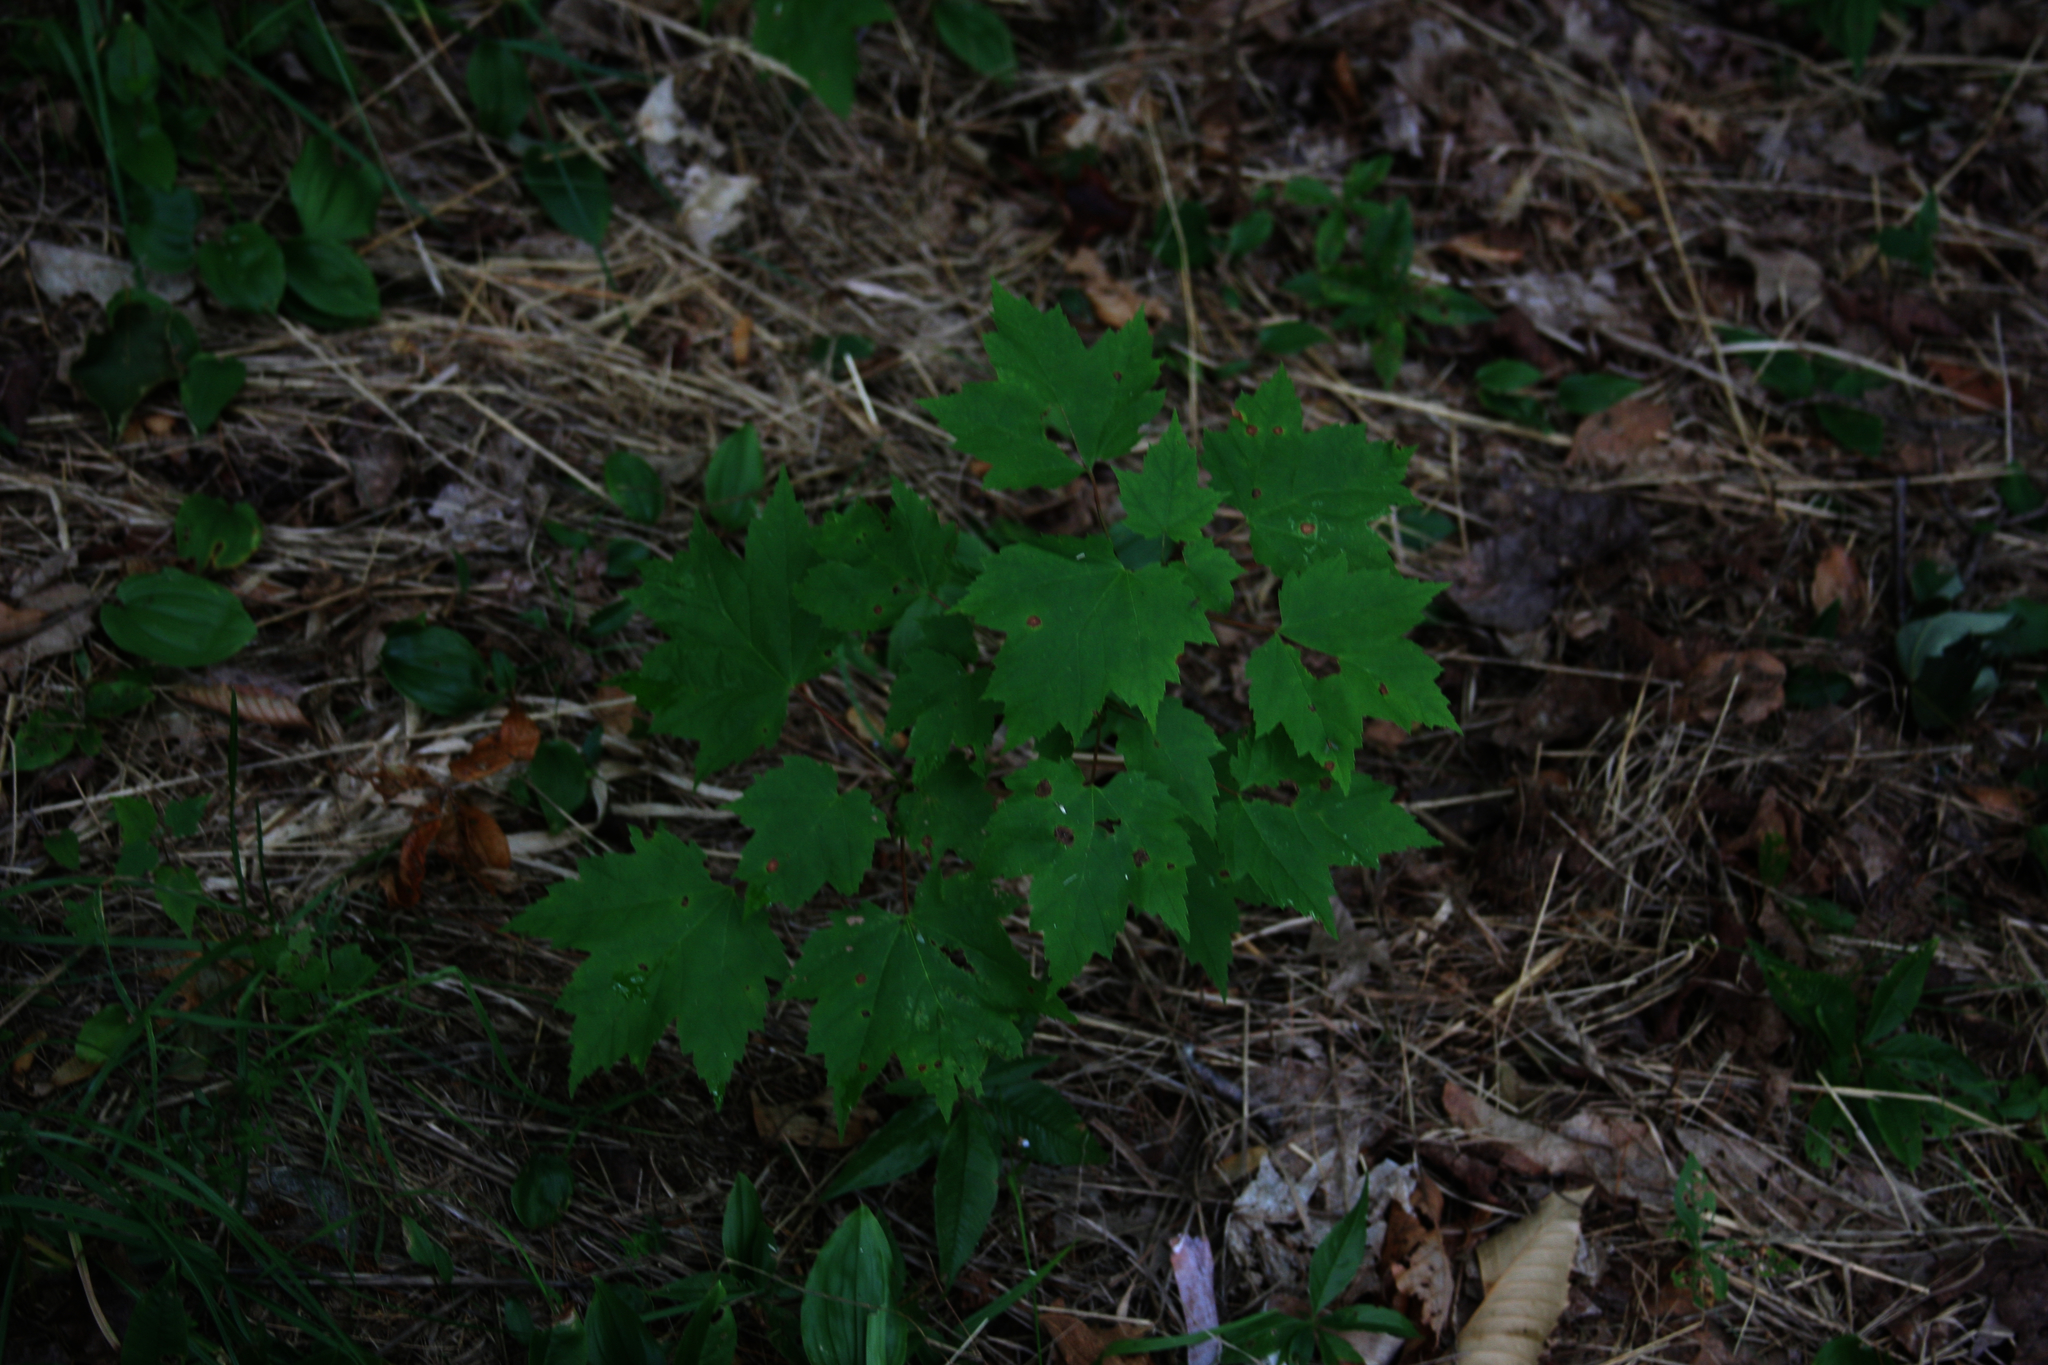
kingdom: Plantae
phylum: Tracheophyta
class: Magnoliopsida
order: Sapindales
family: Sapindaceae
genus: Acer
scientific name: Acer rubrum
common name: Red maple
